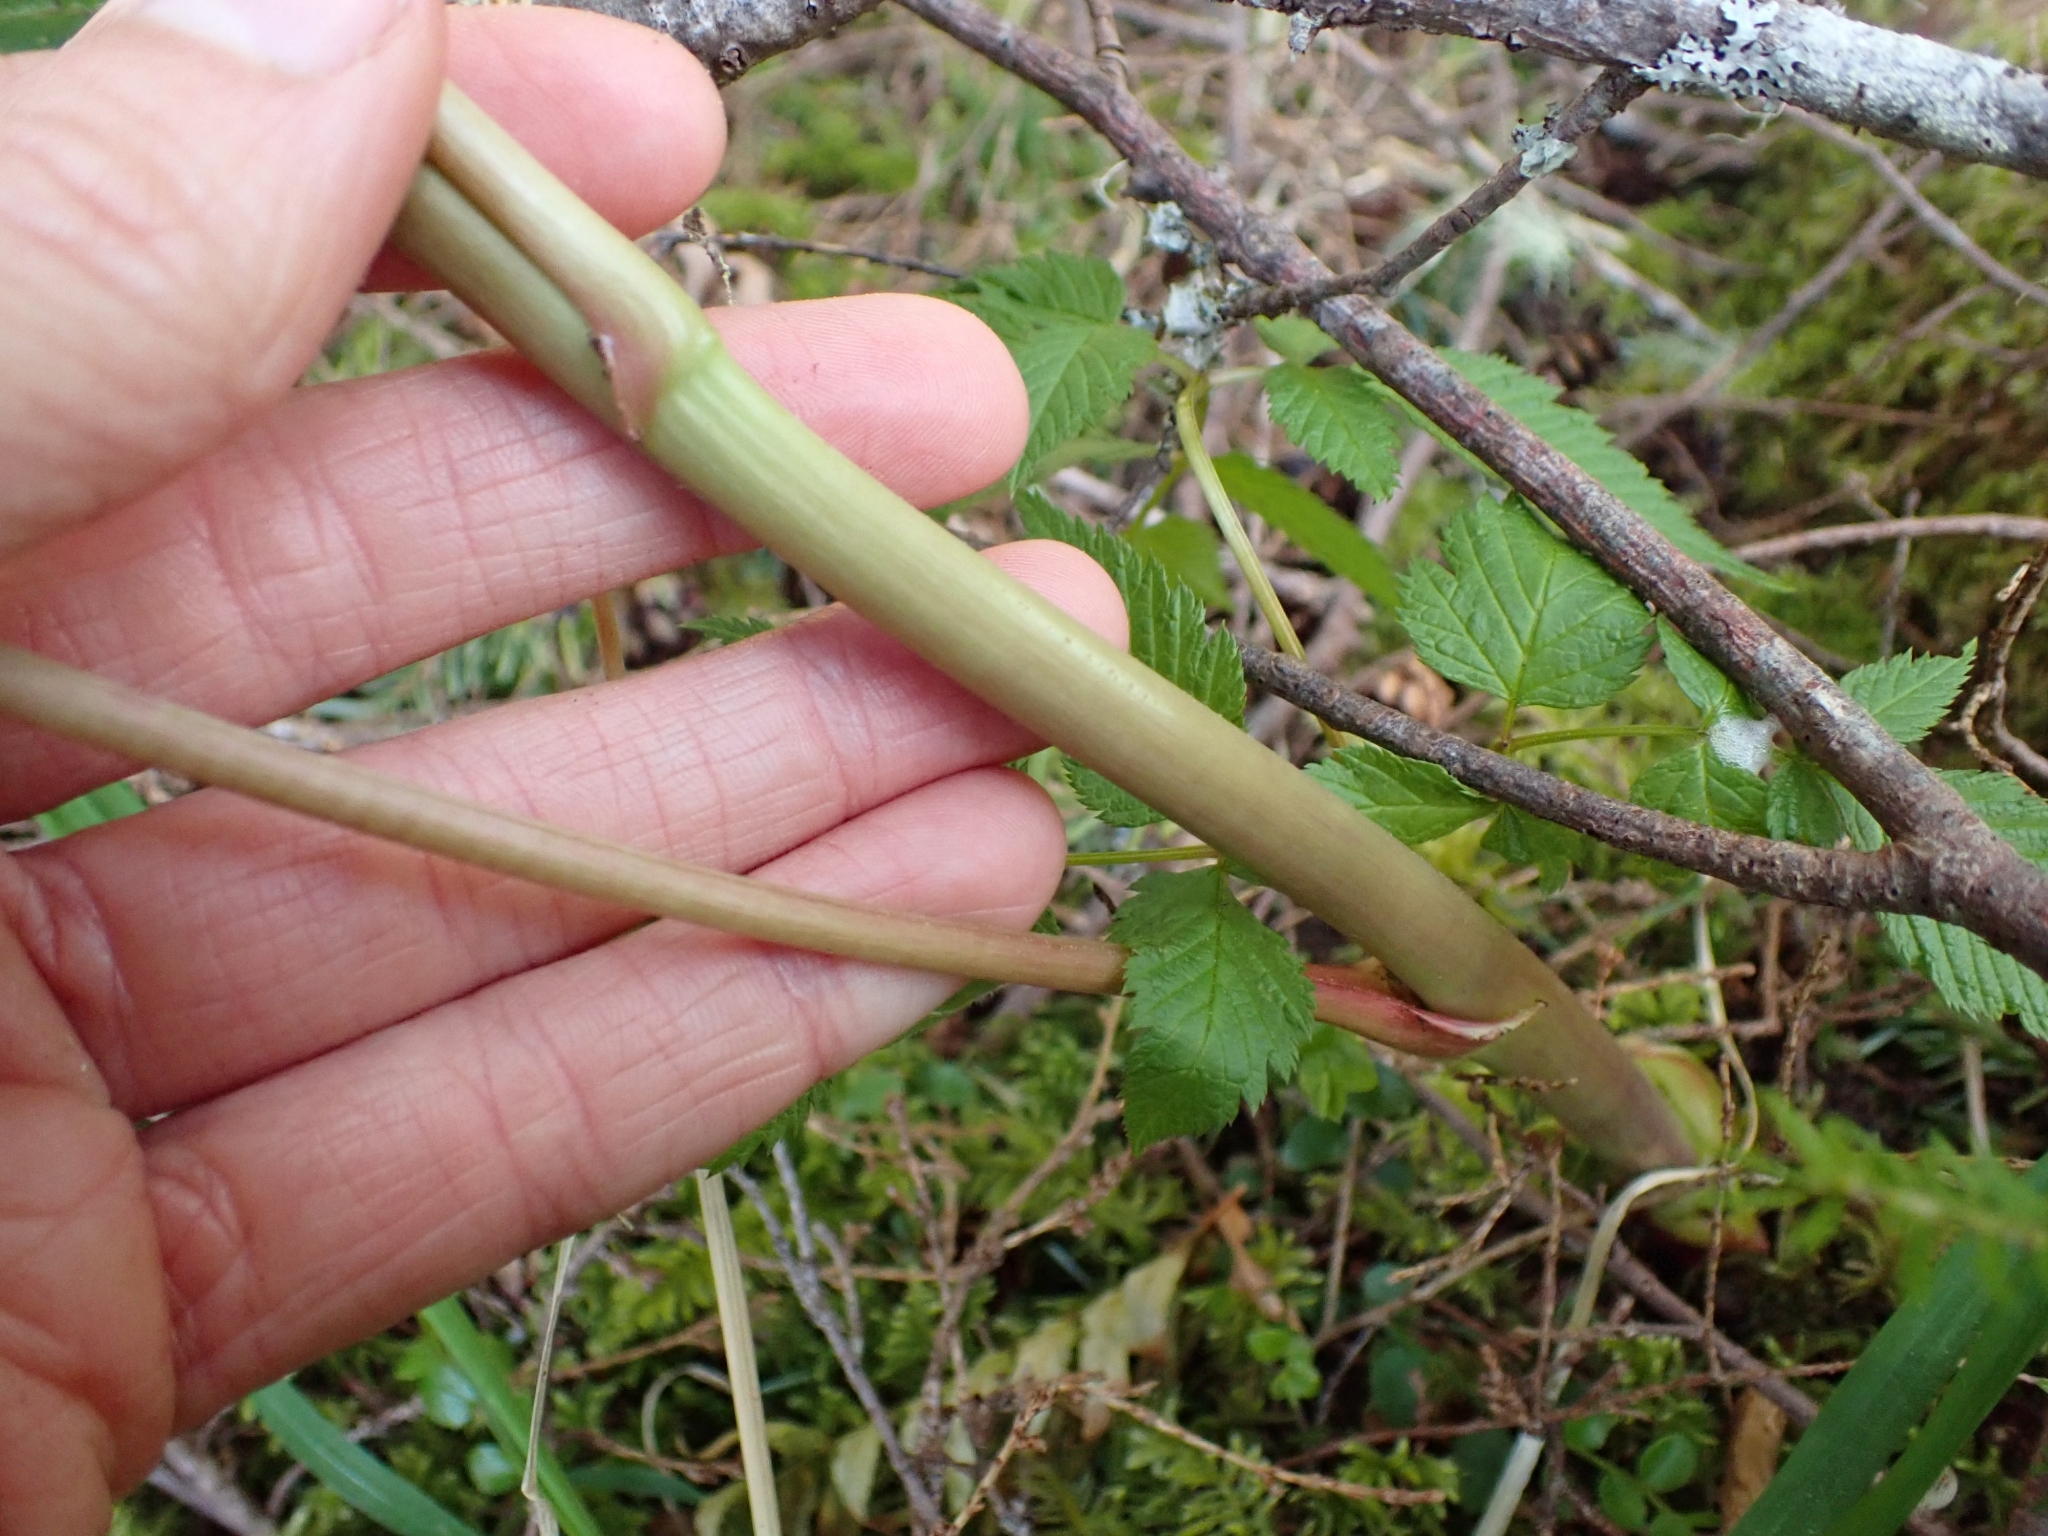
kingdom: Plantae
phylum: Tracheophyta
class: Magnoliopsida
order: Rosales
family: Rosaceae
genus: Aruncus
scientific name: Aruncus dioicus
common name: Buck's-beard
